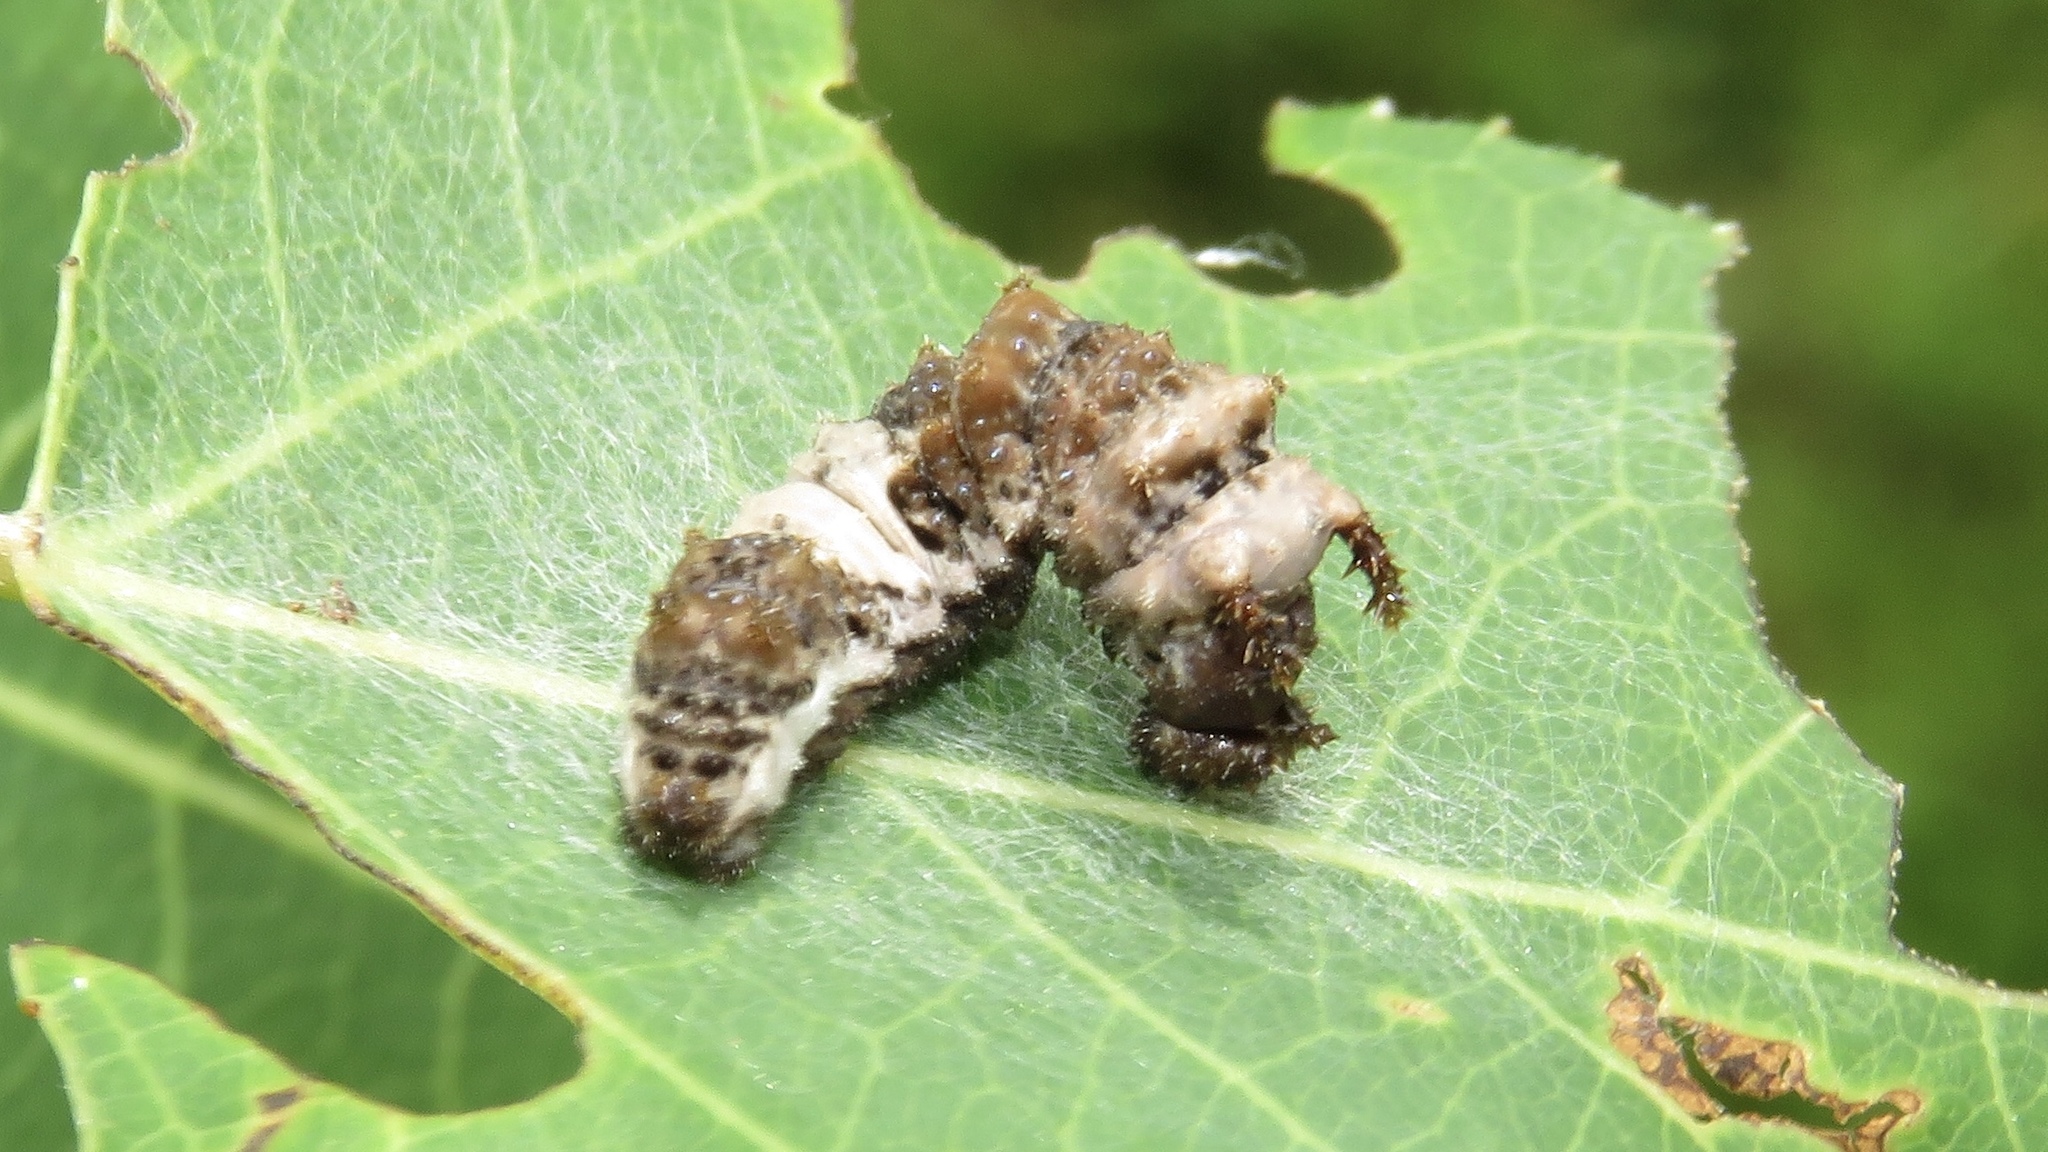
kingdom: Animalia
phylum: Arthropoda
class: Insecta
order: Lepidoptera
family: Nymphalidae
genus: Limenitis
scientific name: Limenitis
